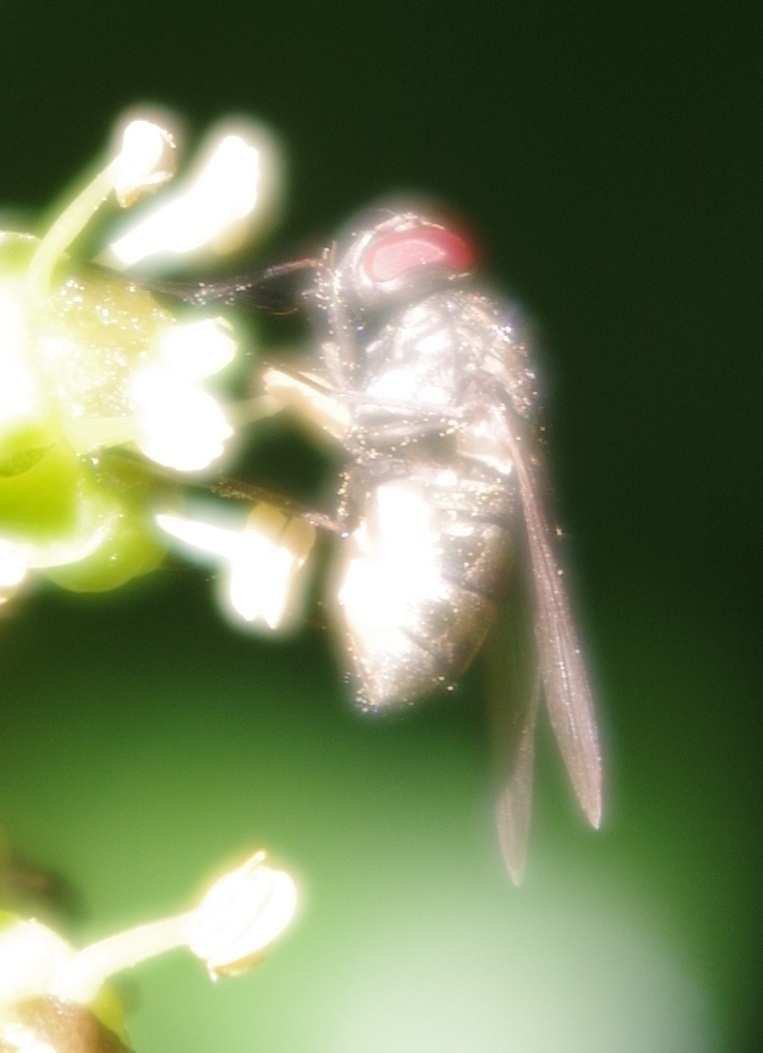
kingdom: Animalia
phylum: Arthropoda
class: Insecta
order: Diptera
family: Muscidae
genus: Stomoxys
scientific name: Stomoxys calcitrans
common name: Stable fly
